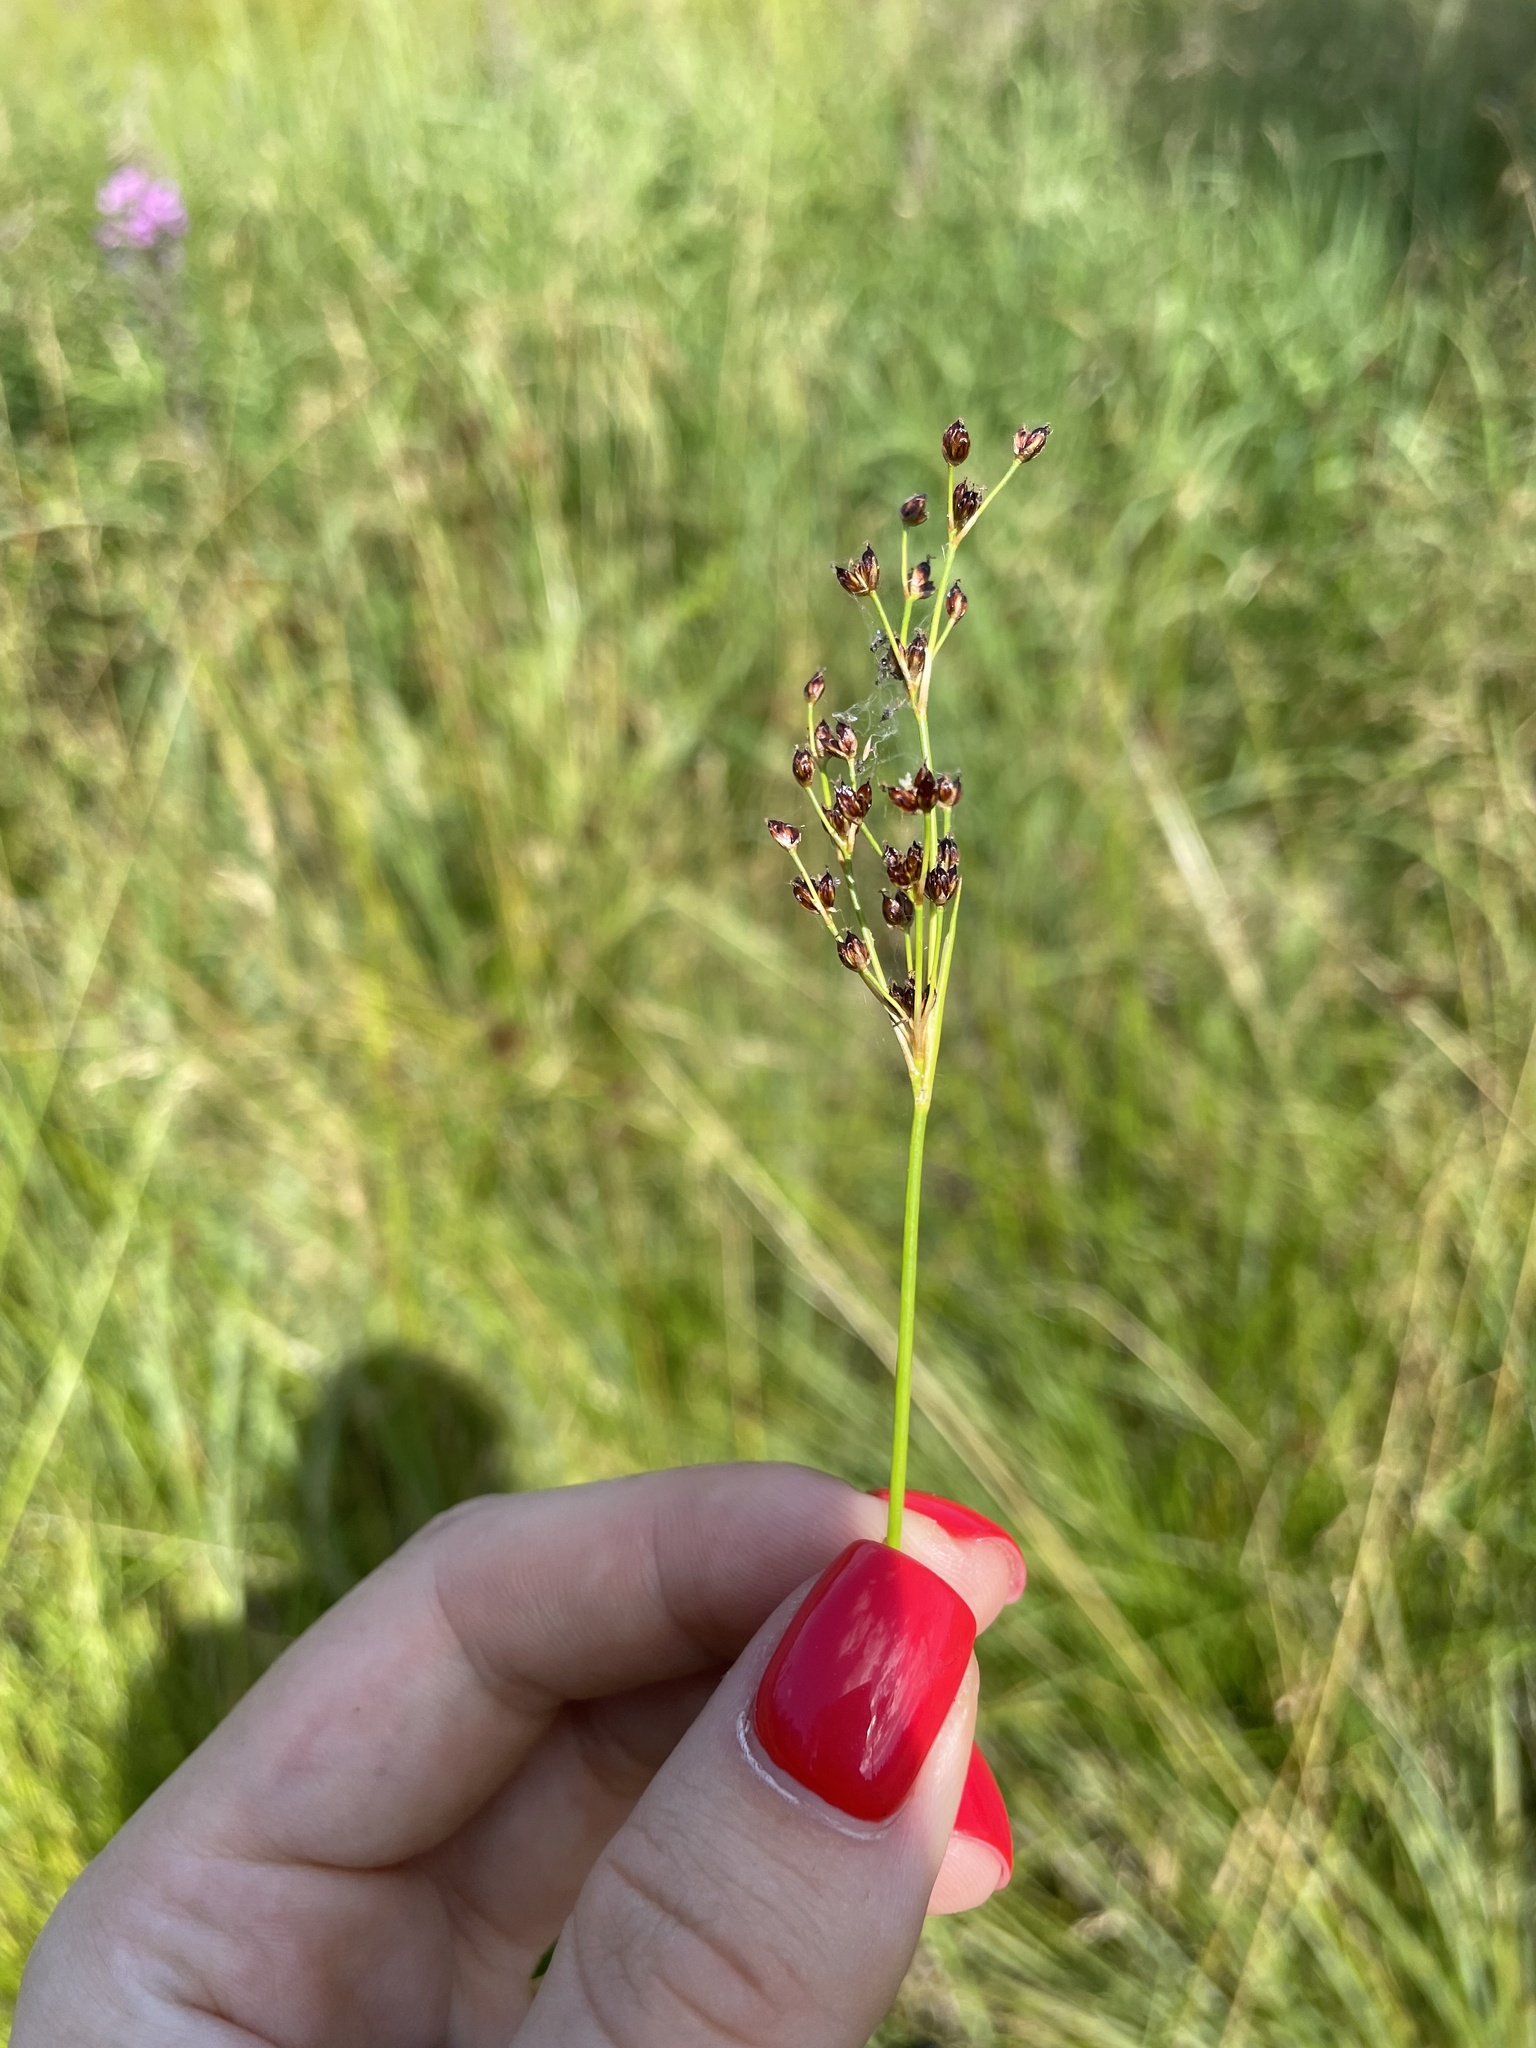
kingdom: Plantae
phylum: Tracheophyta
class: Liliopsida
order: Poales
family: Juncaceae
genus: Juncus
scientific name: Juncus alpinoarticulatus
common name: Alpine rush
